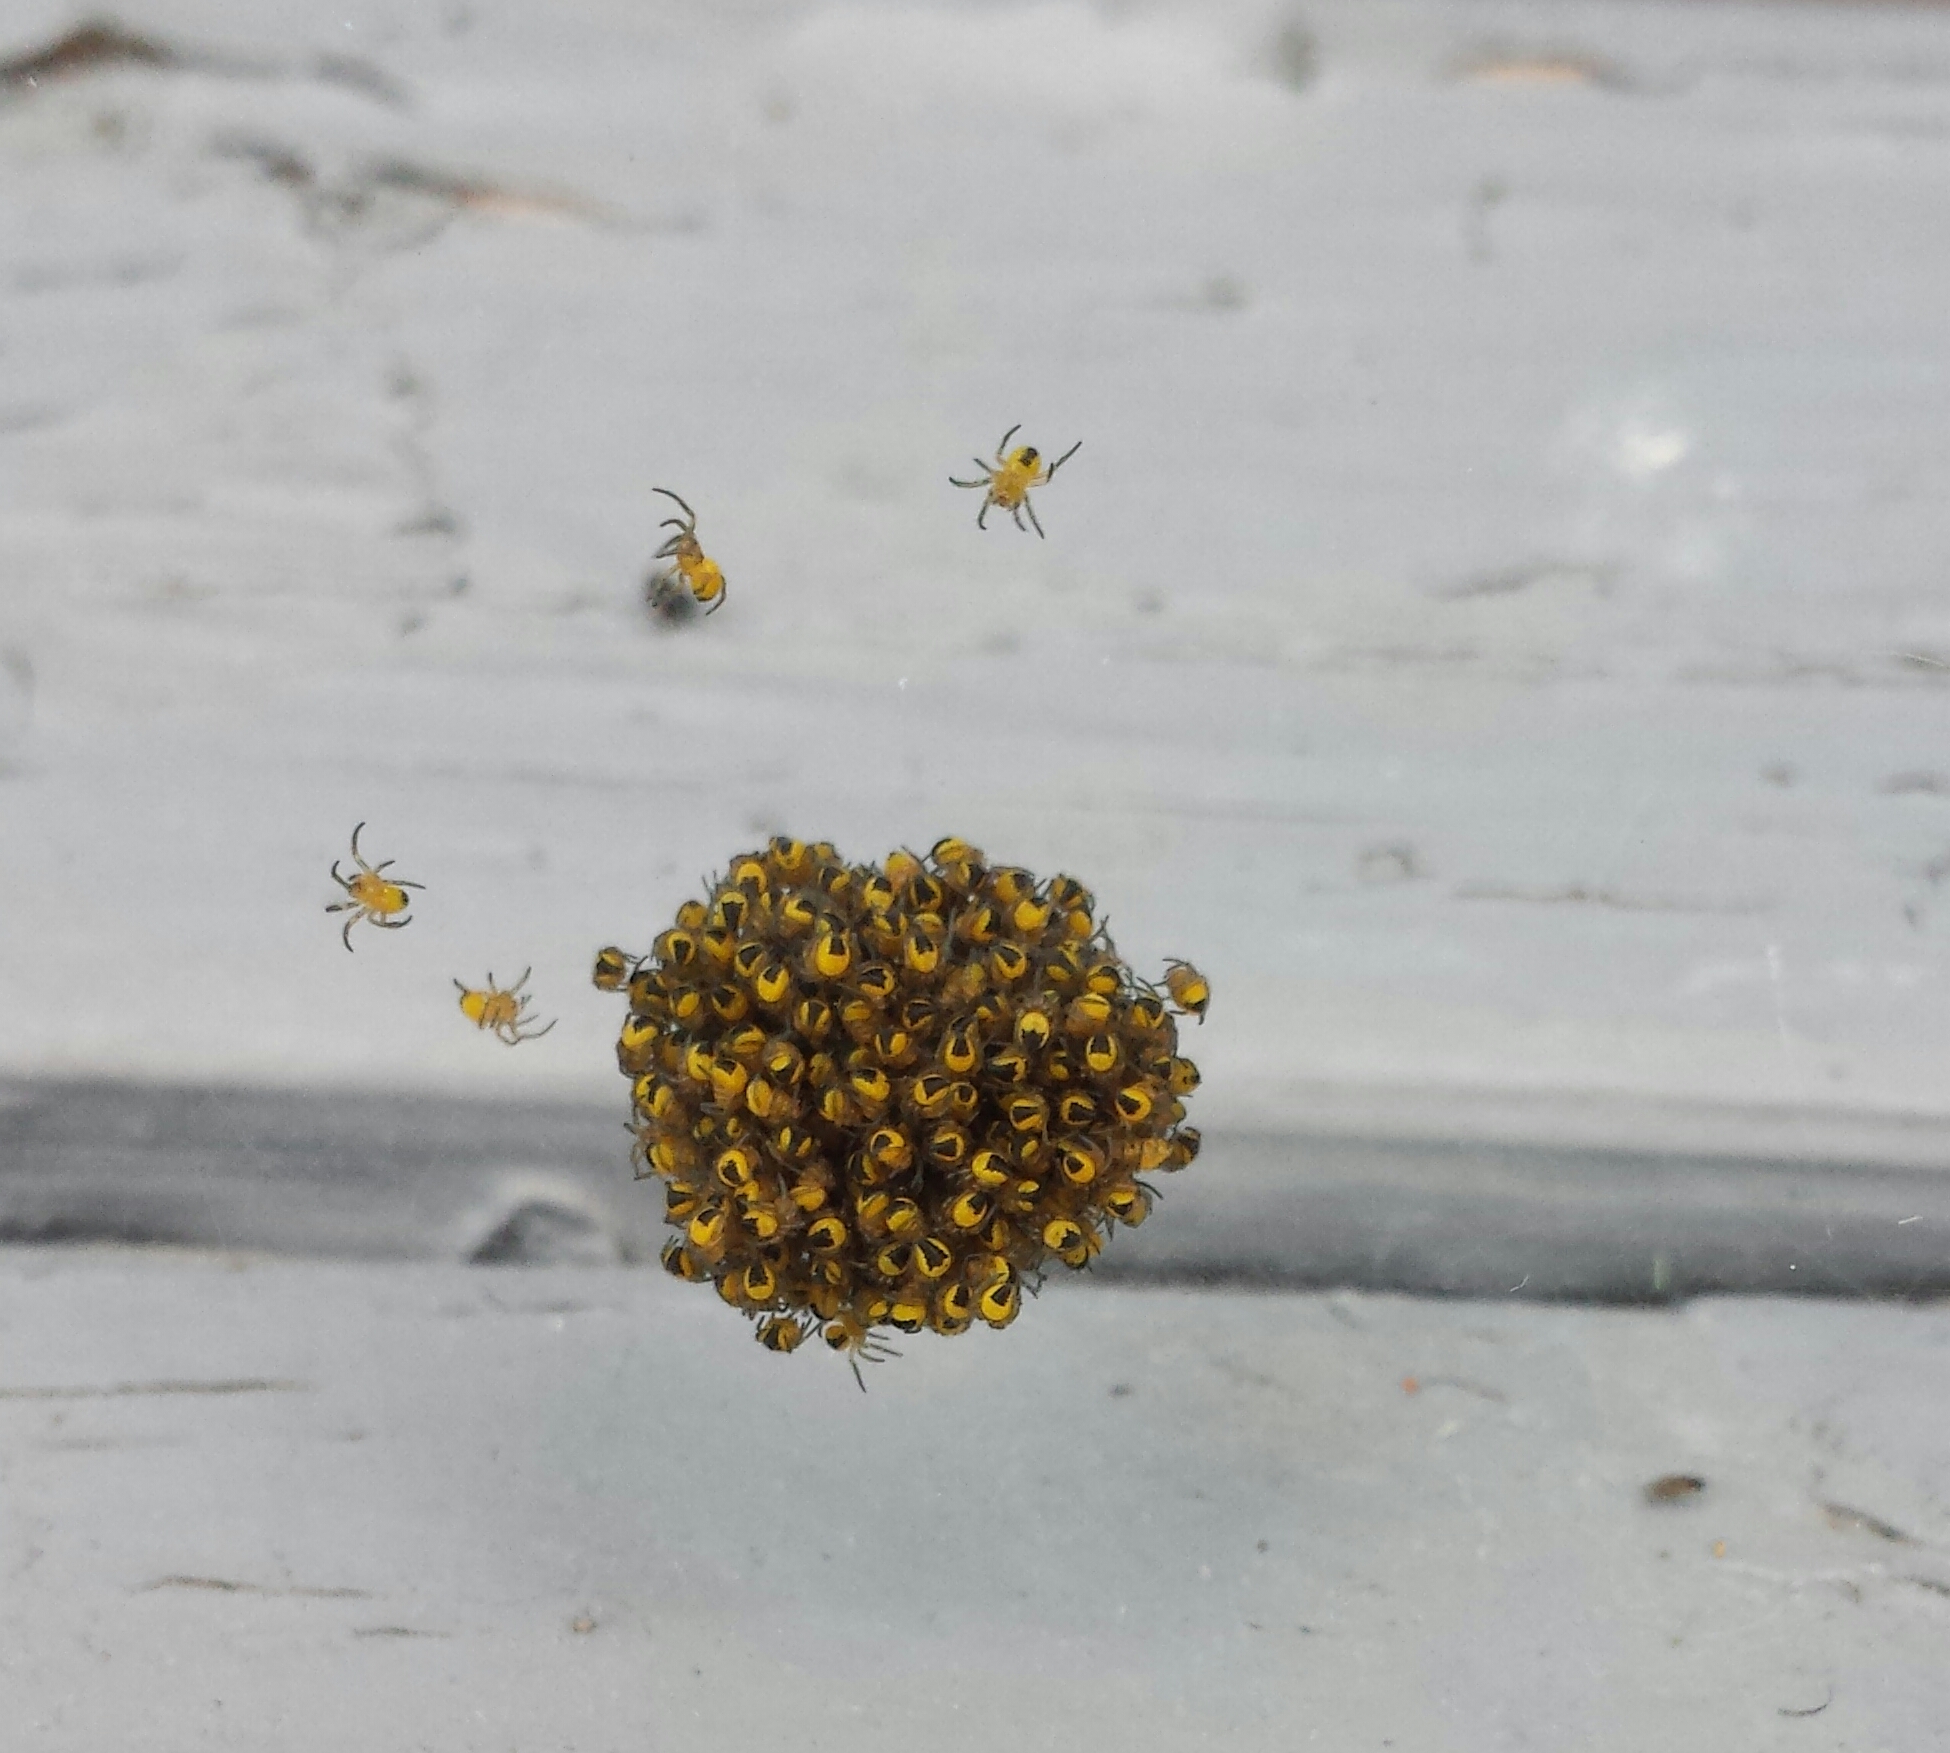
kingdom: Animalia
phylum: Arthropoda
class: Arachnida
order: Araneae
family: Araneidae
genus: Araneus
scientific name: Araneus diadematus
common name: Cross orbweaver
